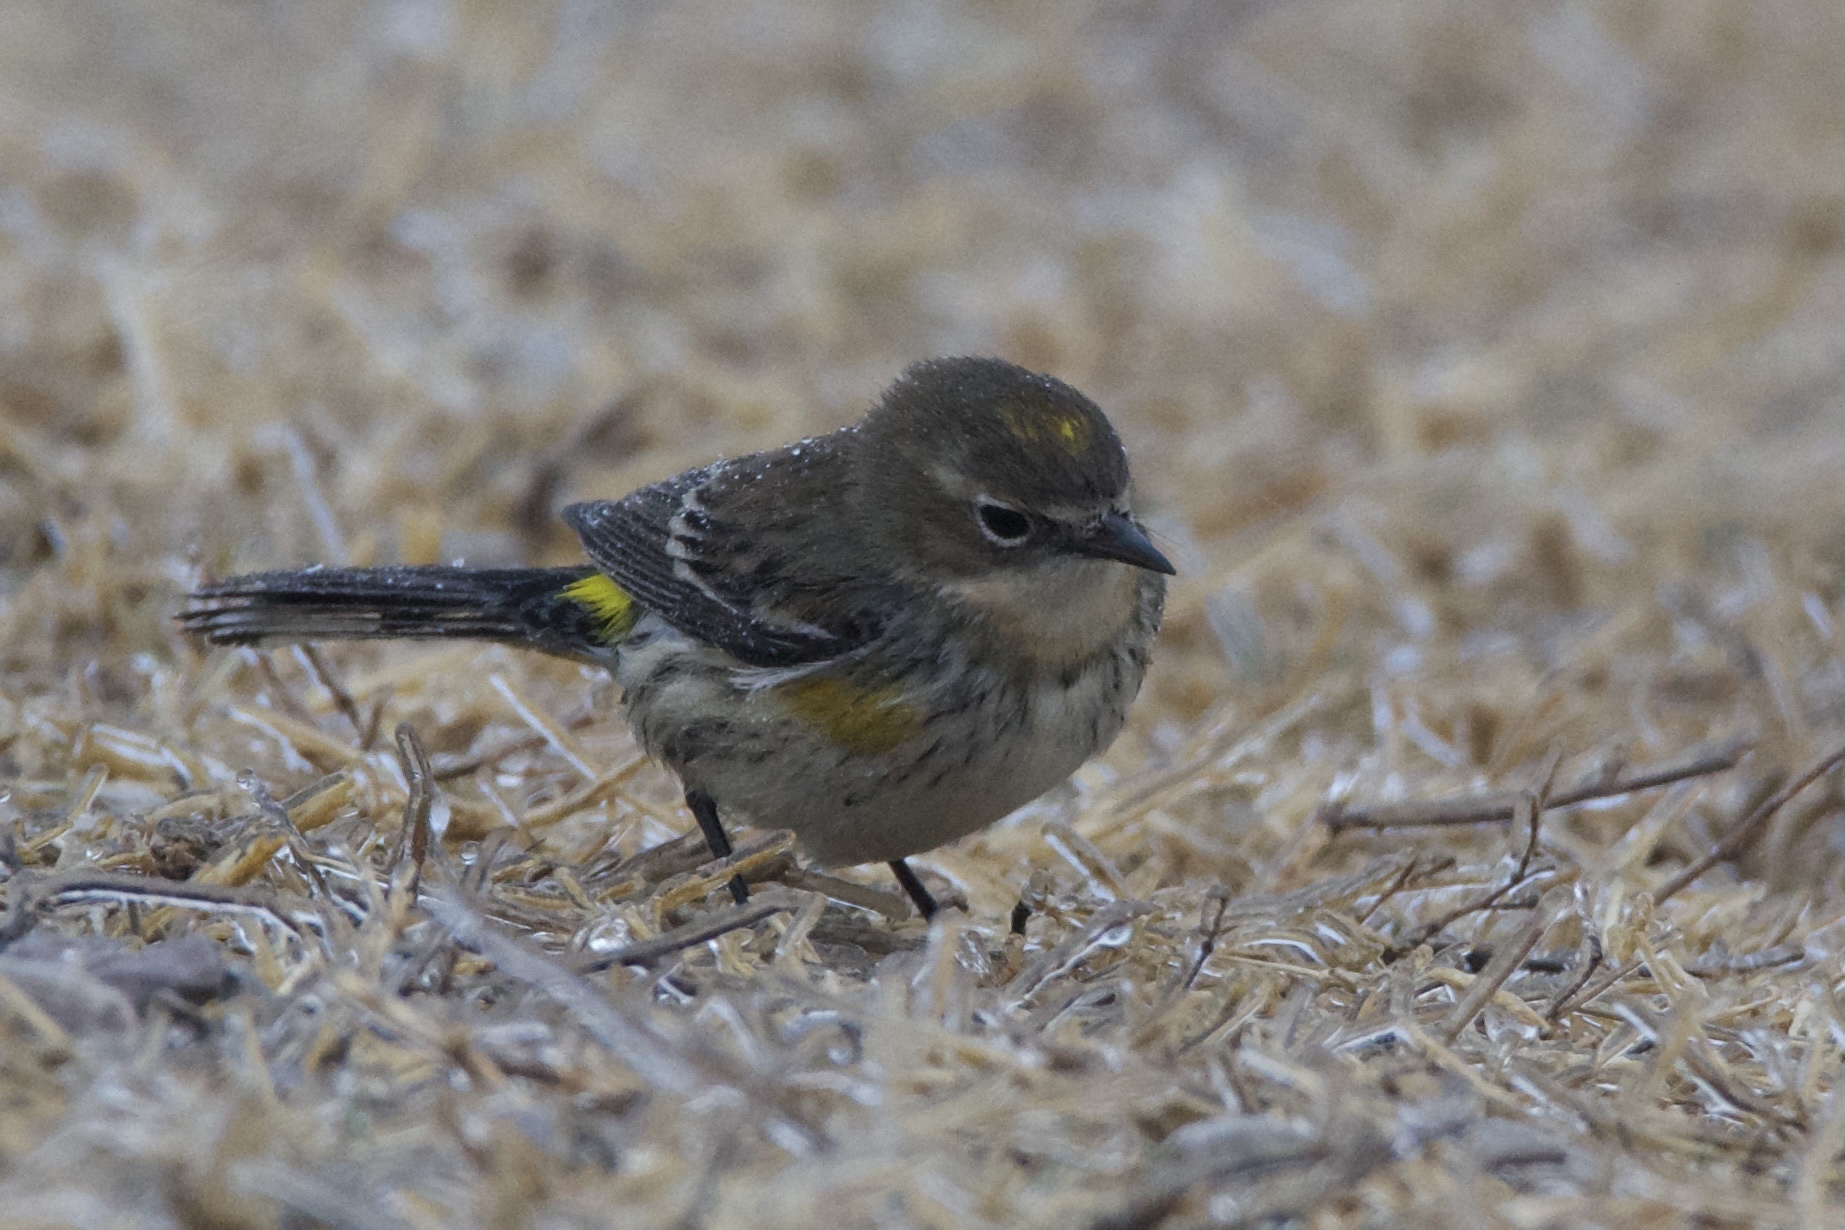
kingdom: Animalia
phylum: Chordata
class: Aves
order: Passeriformes
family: Parulidae
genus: Setophaga
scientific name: Setophaga coronata
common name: Myrtle warbler
